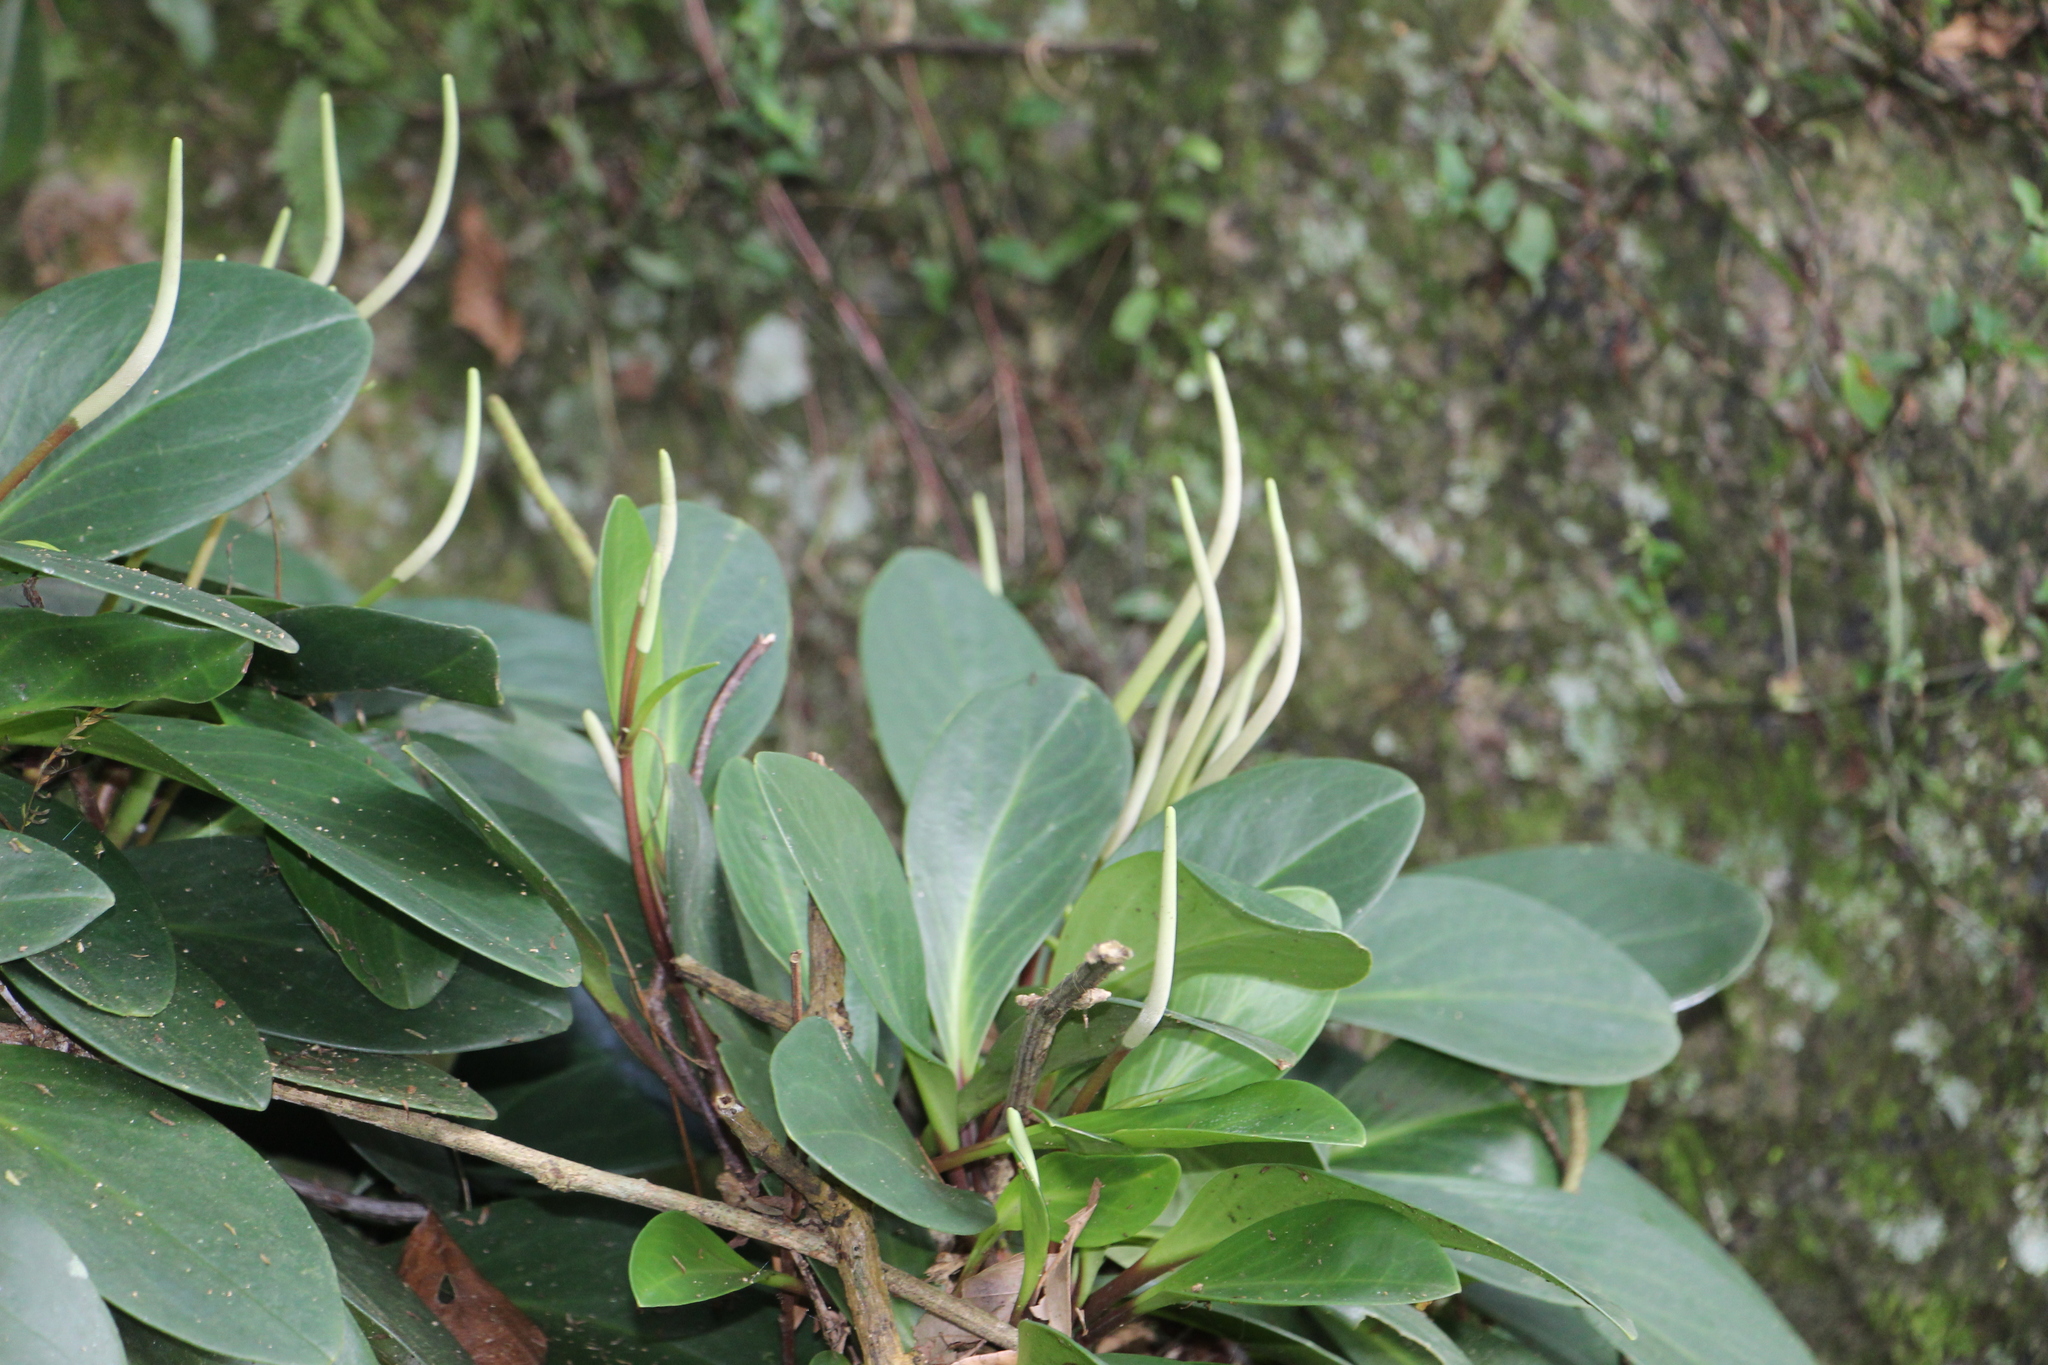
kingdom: Plantae
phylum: Tracheophyta
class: Magnoliopsida
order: Piperales
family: Piperaceae
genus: Peperomia
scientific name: Peperomia obtusifolia
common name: Baby rubberplant
